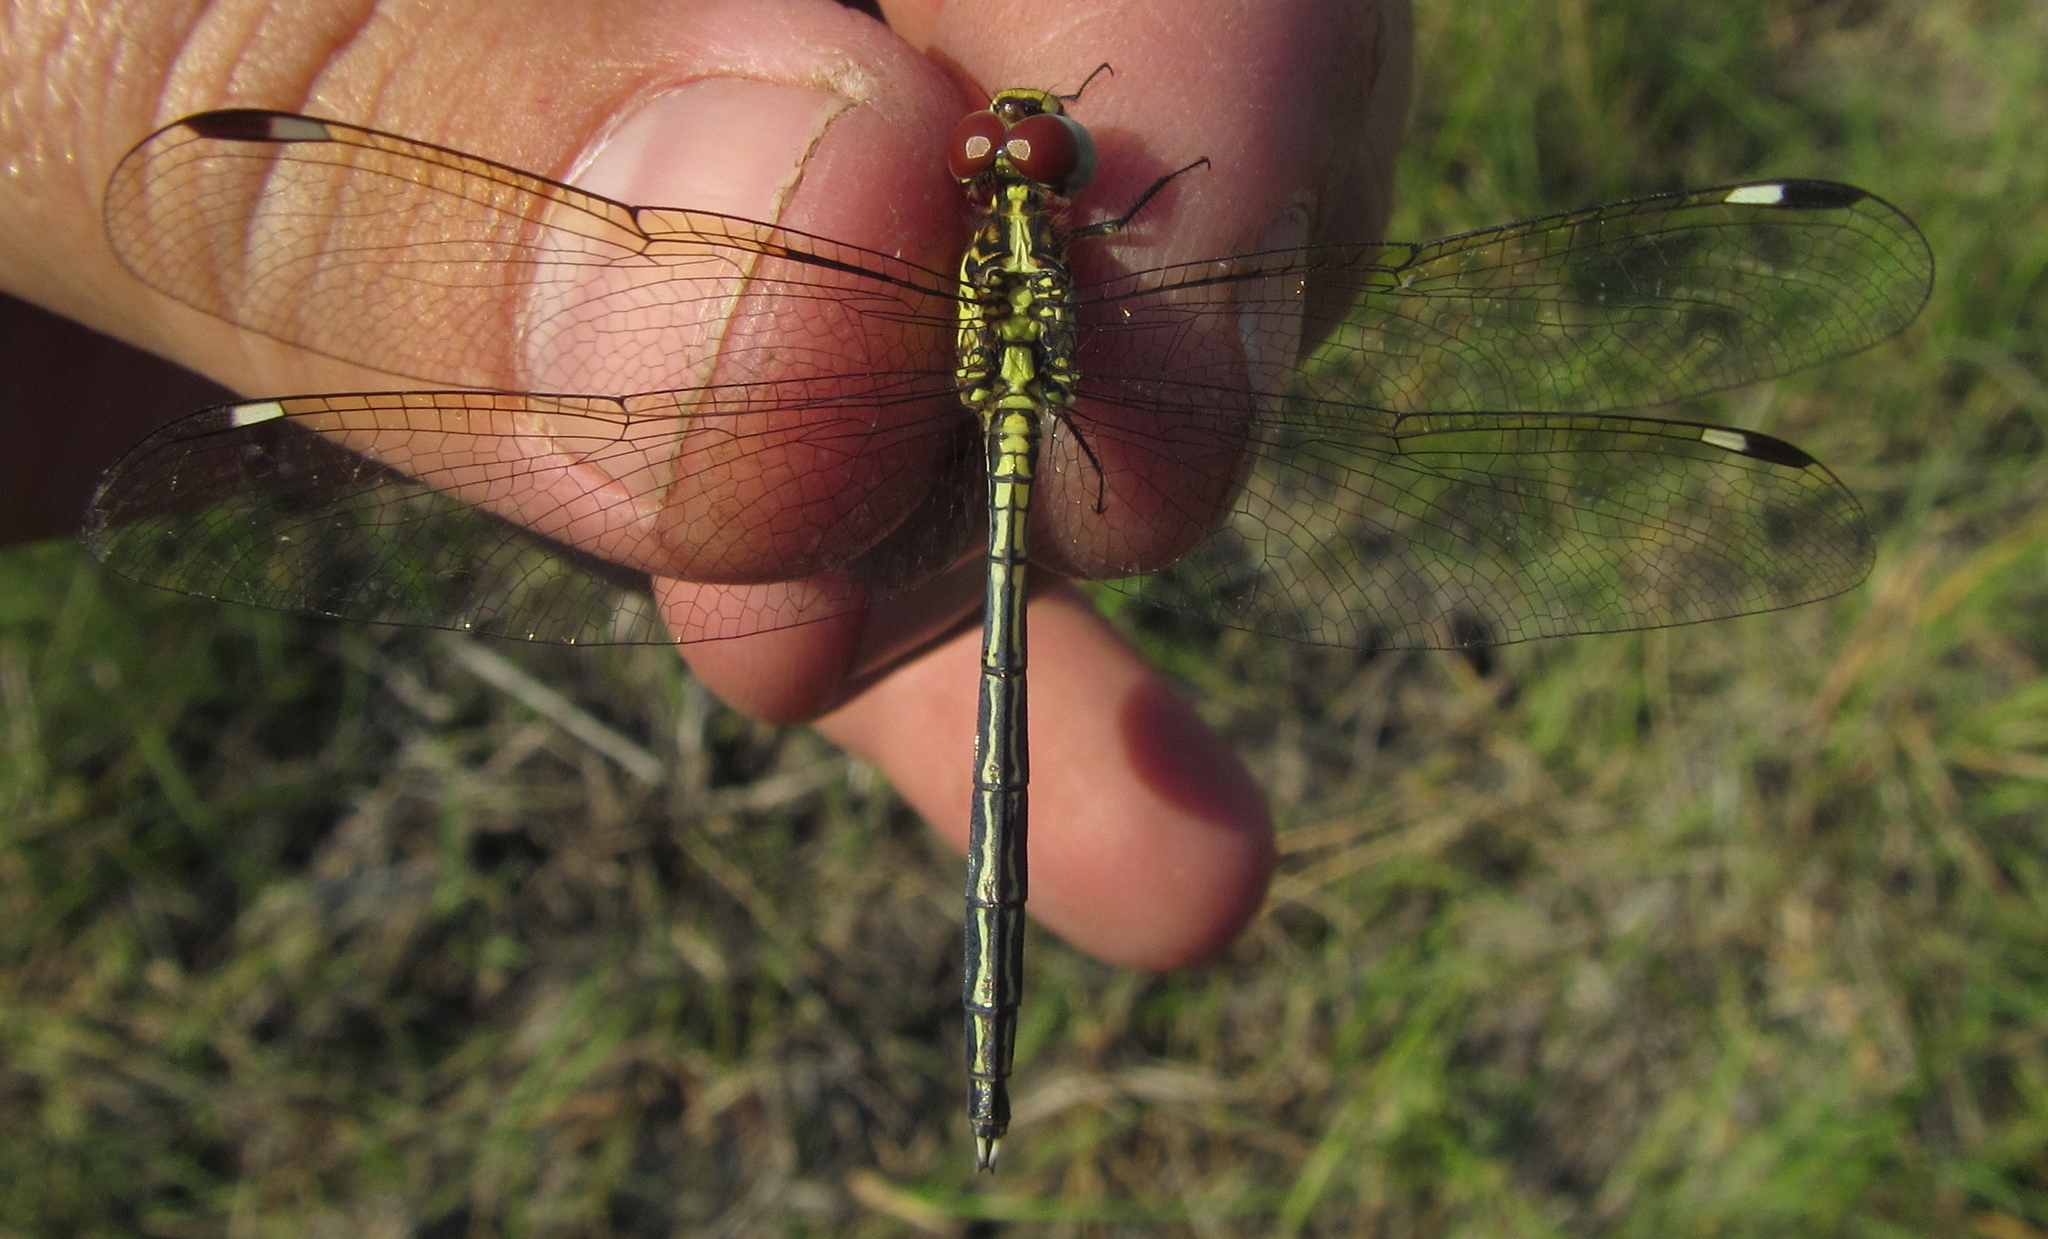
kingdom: Animalia
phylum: Arthropoda
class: Insecta
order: Odonata
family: Libellulidae
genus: Hemistigma
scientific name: Hemistigma albipunctum
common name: African pied-spot
